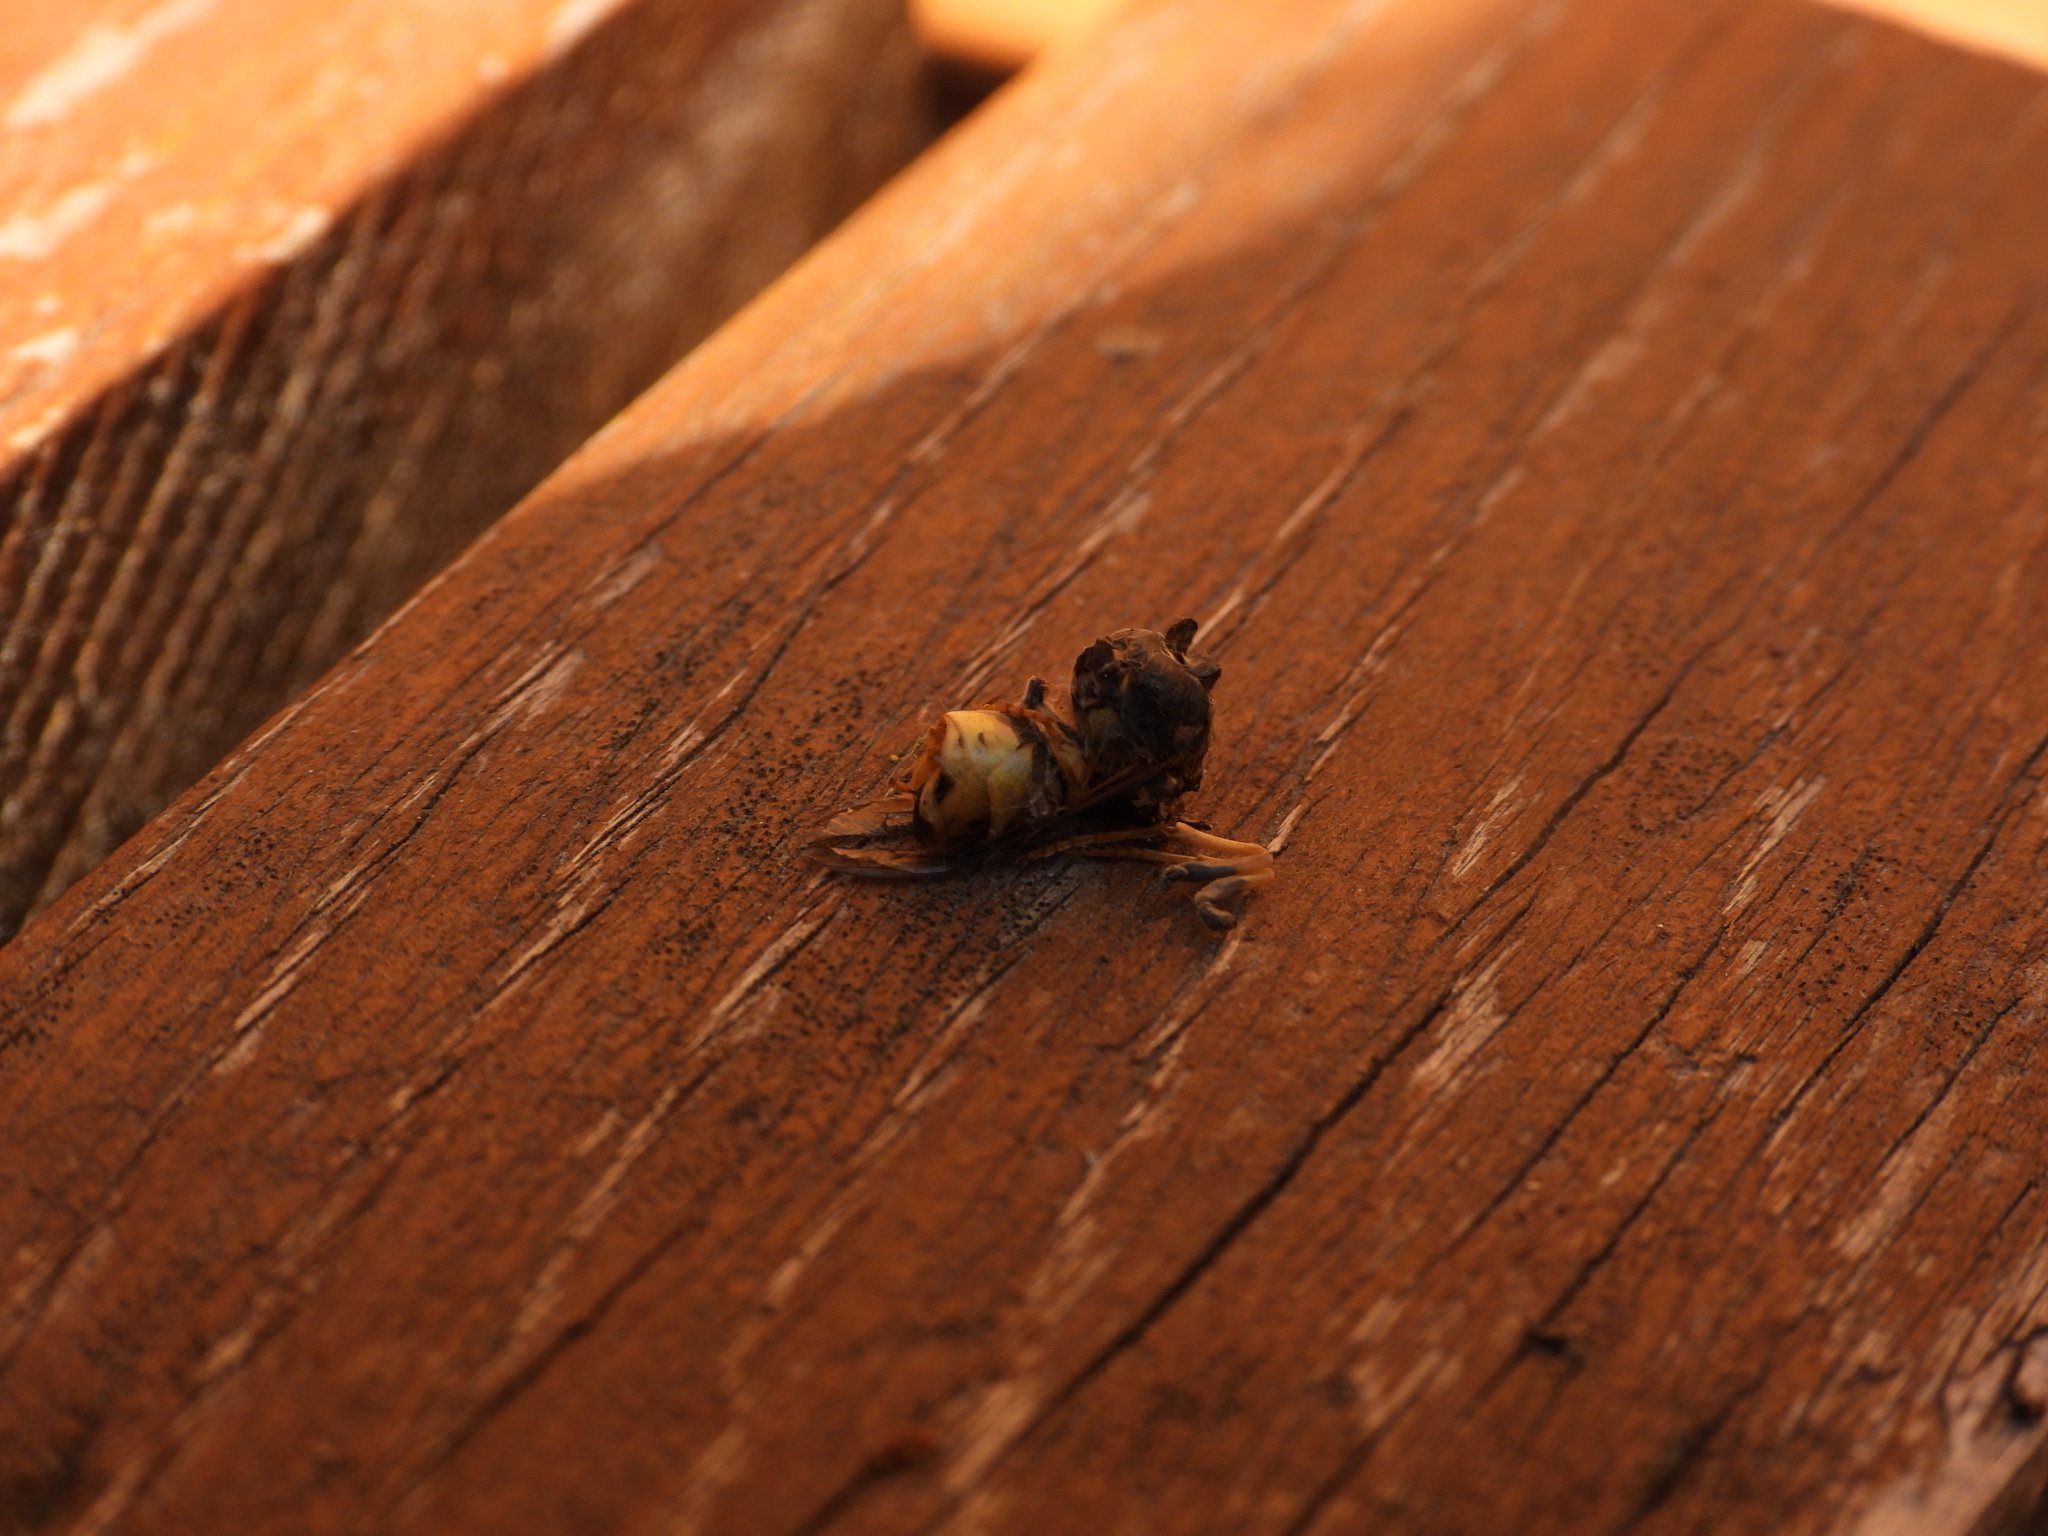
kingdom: Animalia
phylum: Arthropoda
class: Insecta
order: Hymenoptera
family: Vespidae
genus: Vespula
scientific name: Vespula germanica
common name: German wasp
